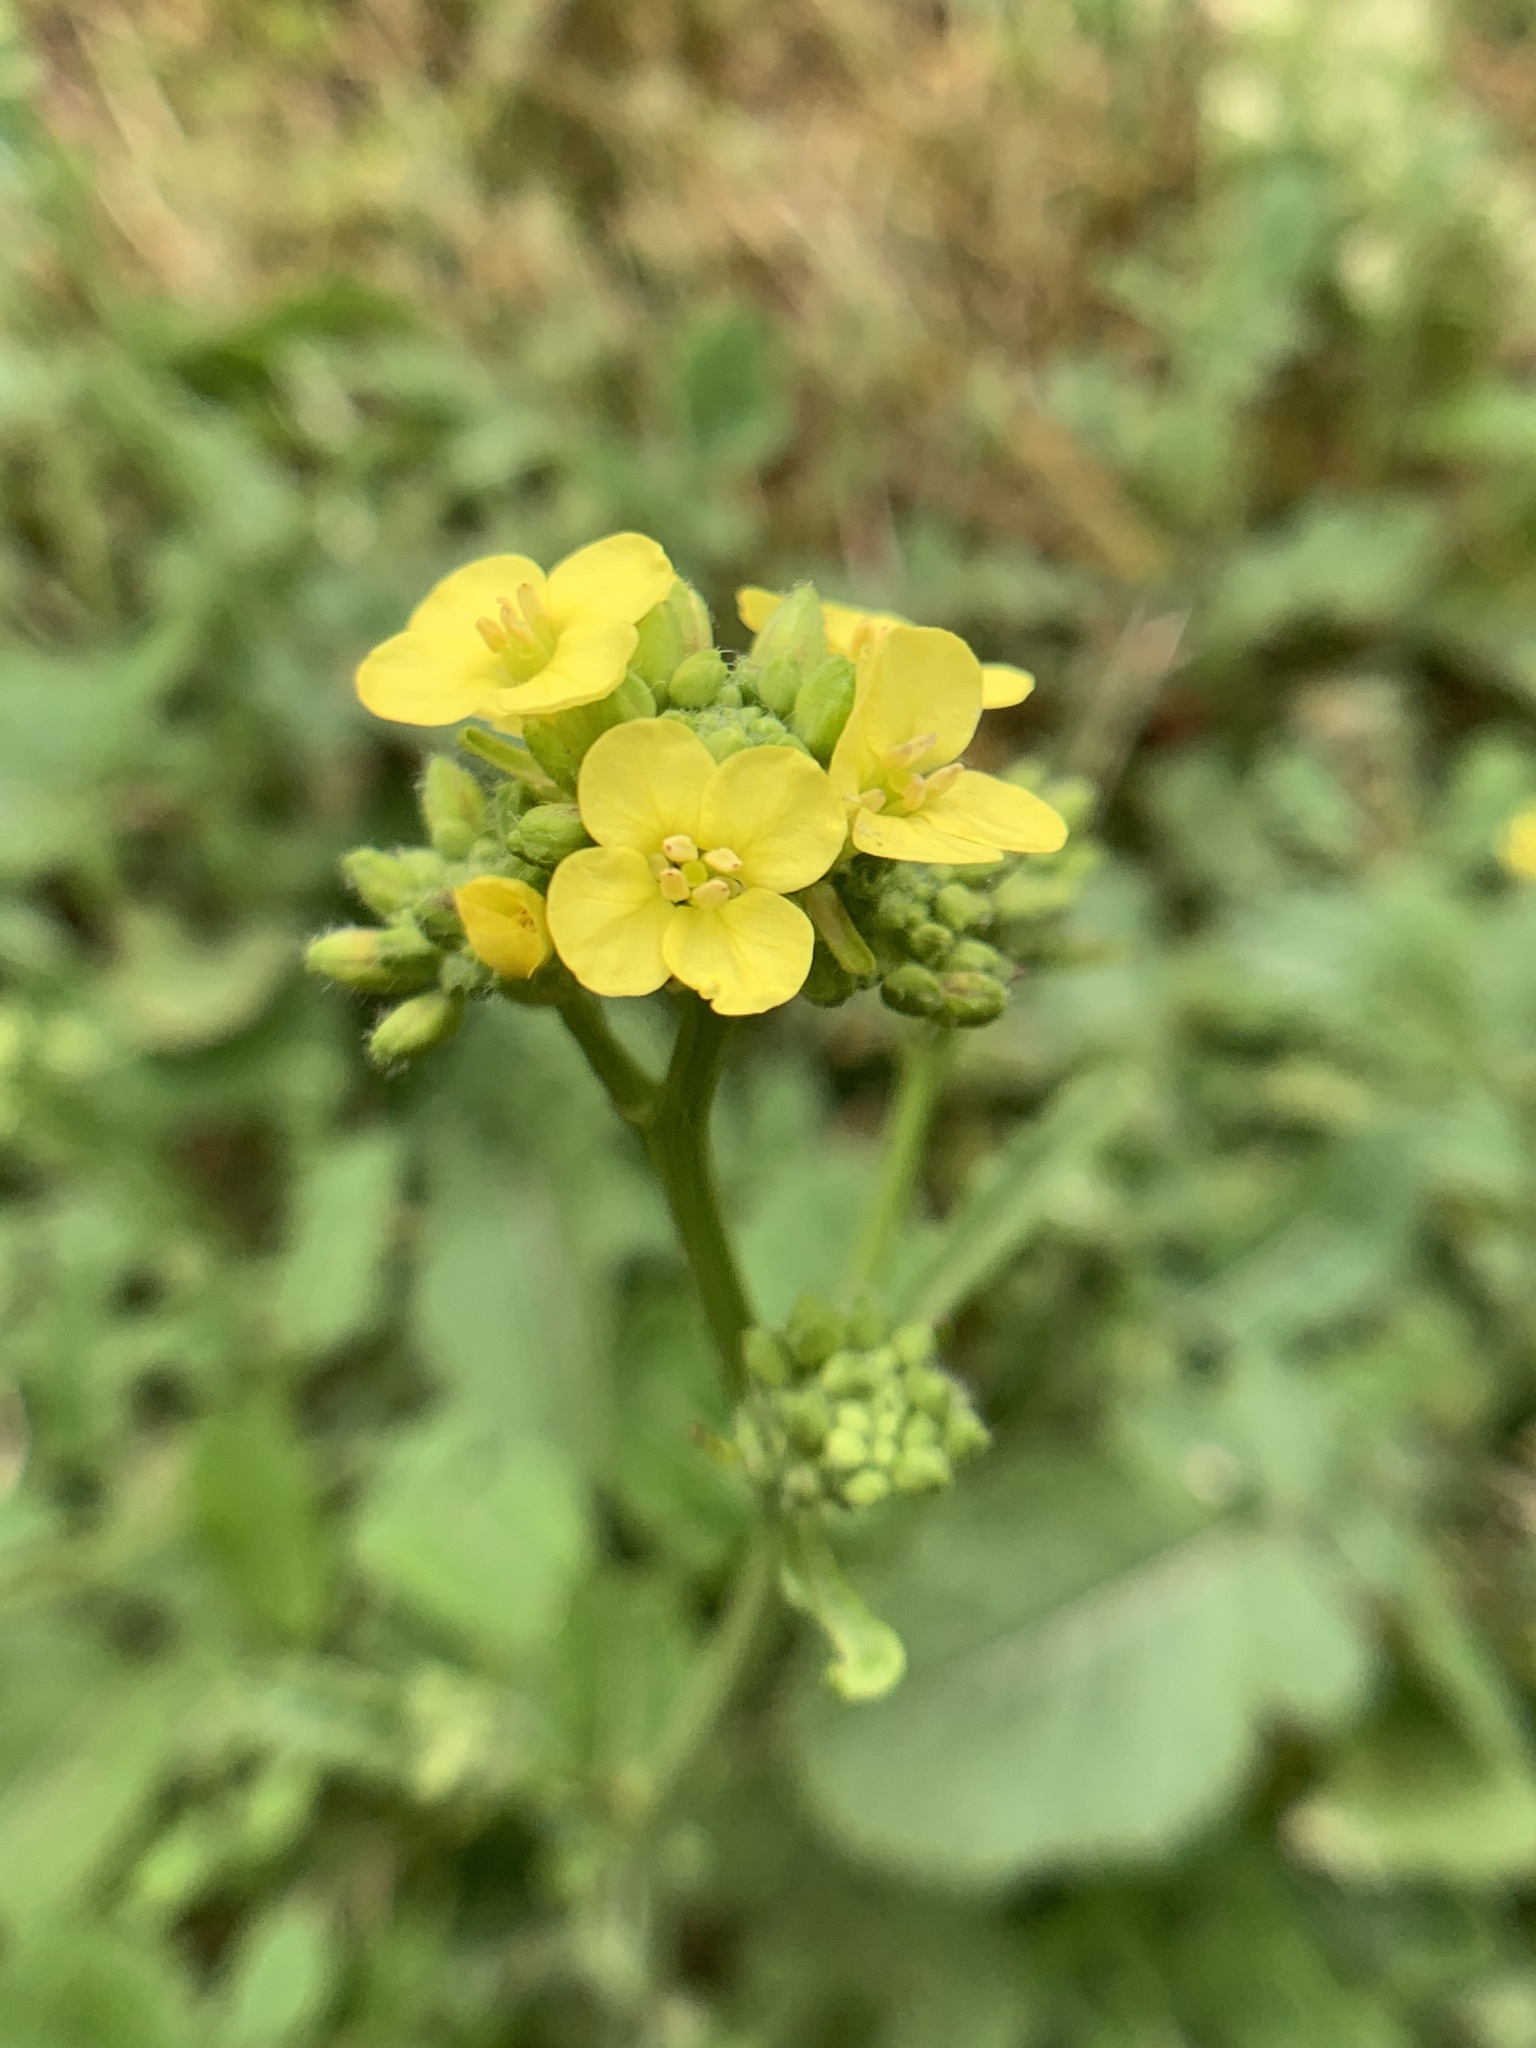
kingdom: Plantae
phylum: Tracheophyta
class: Magnoliopsida
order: Brassicales
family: Brassicaceae
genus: Hirschfeldia
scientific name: Hirschfeldia incana
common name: Hoary mustard
